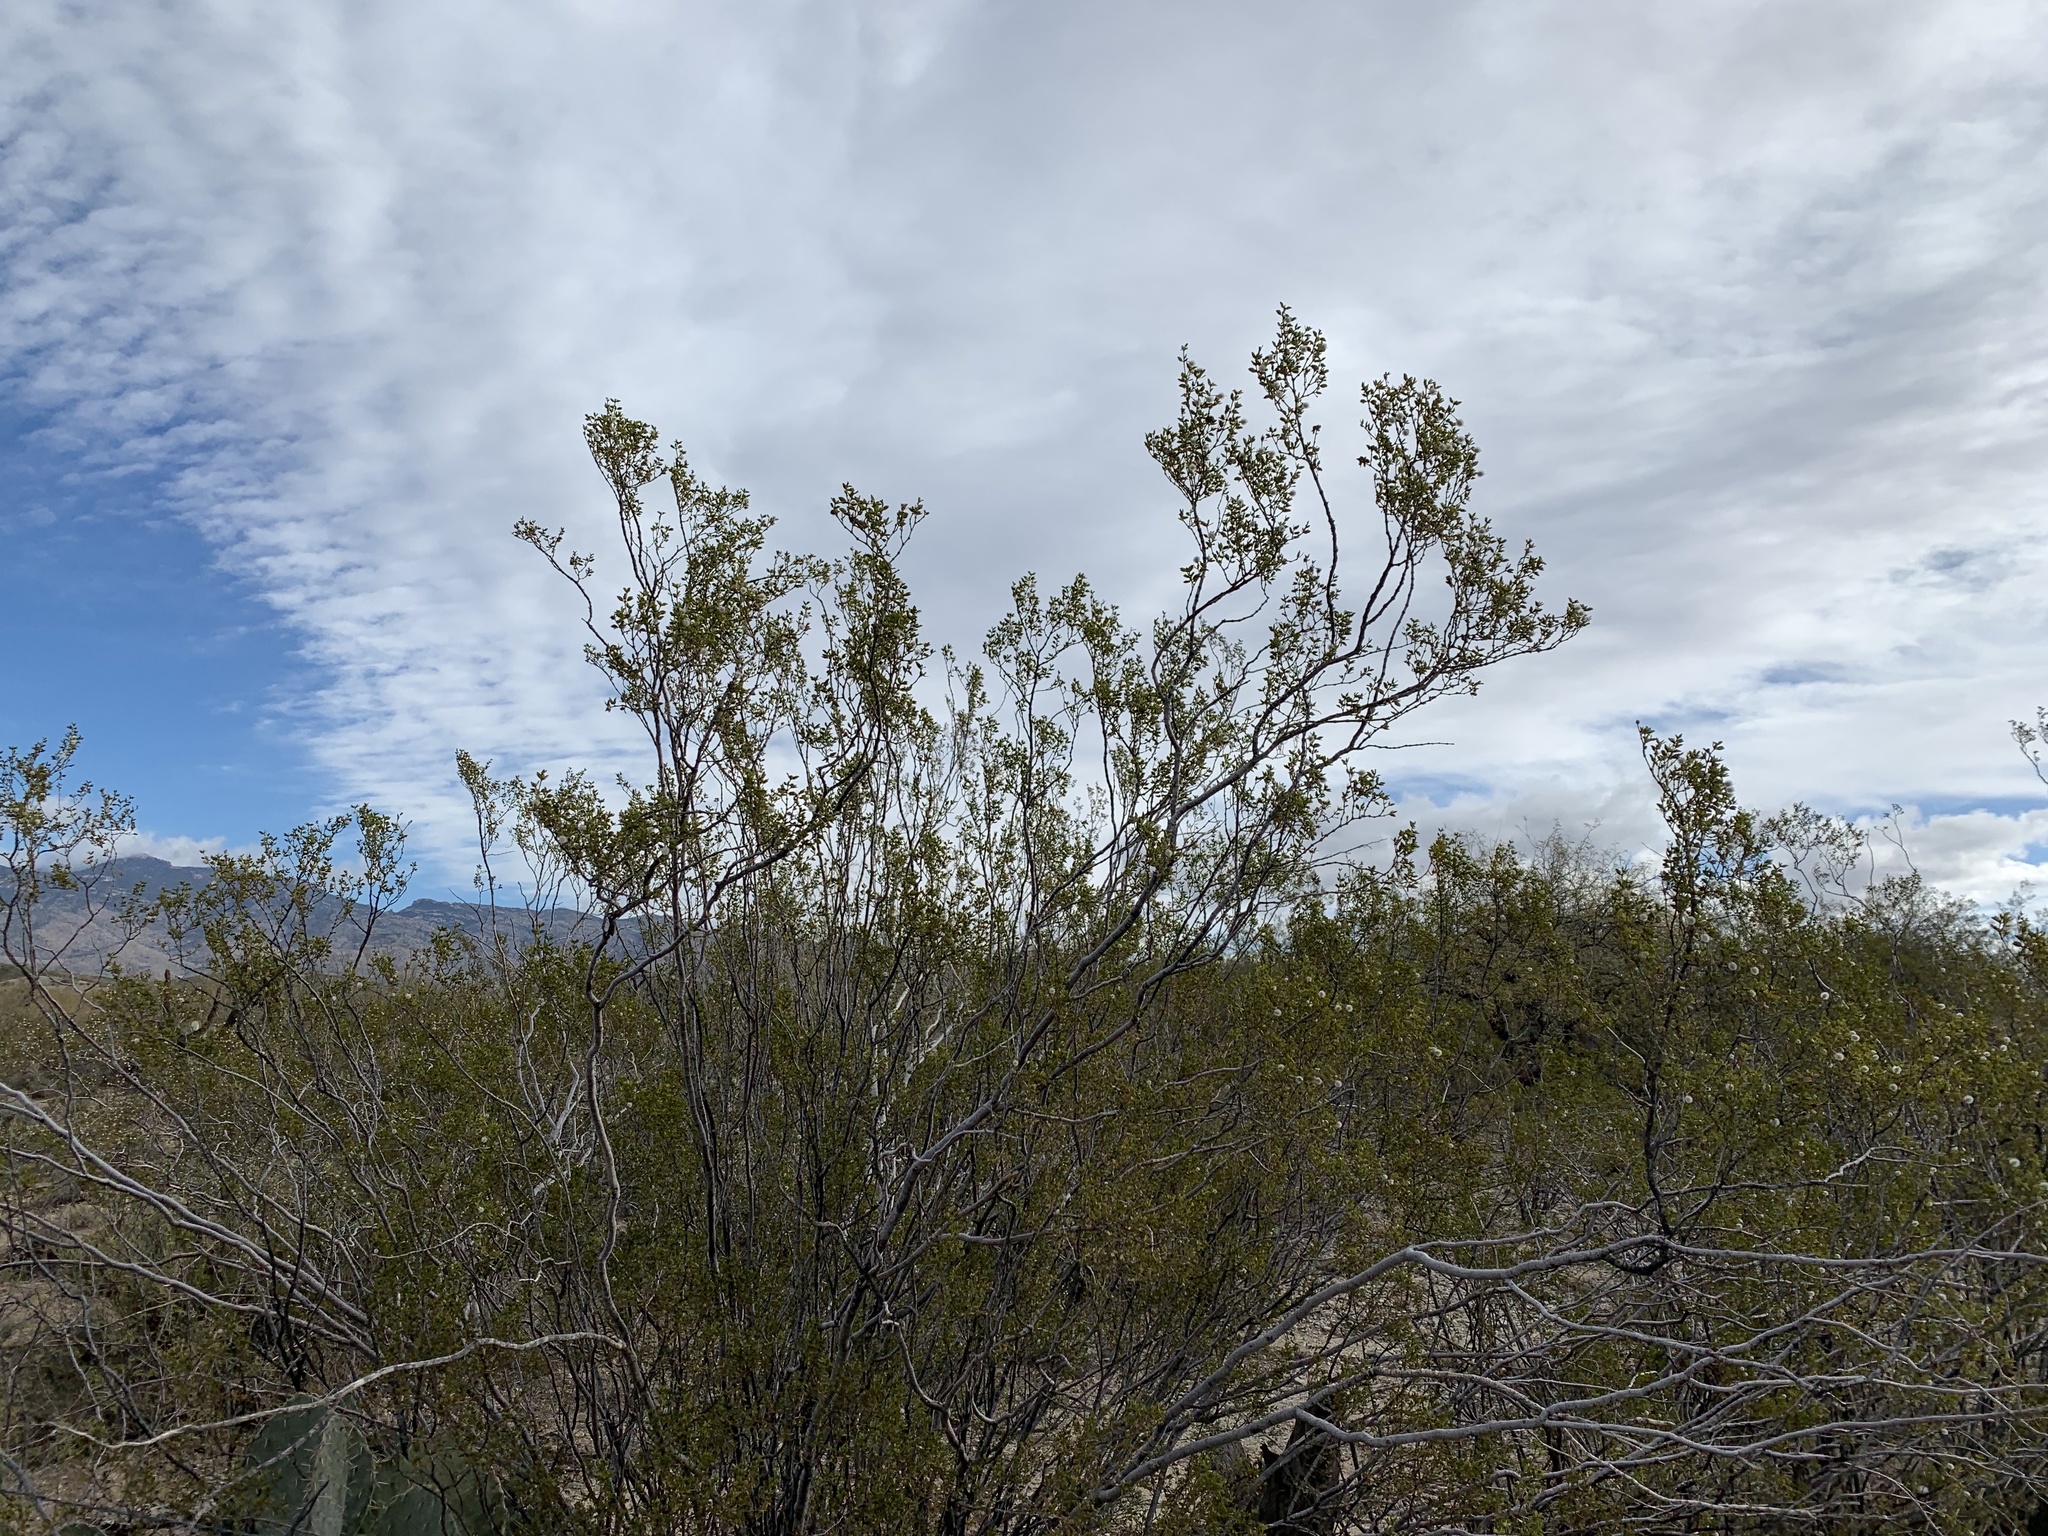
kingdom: Plantae
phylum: Tracheophyta
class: Magnoliopsida
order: Zygophyllales
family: Zygophyllaceae
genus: Larrea
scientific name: Larrea tridentata
